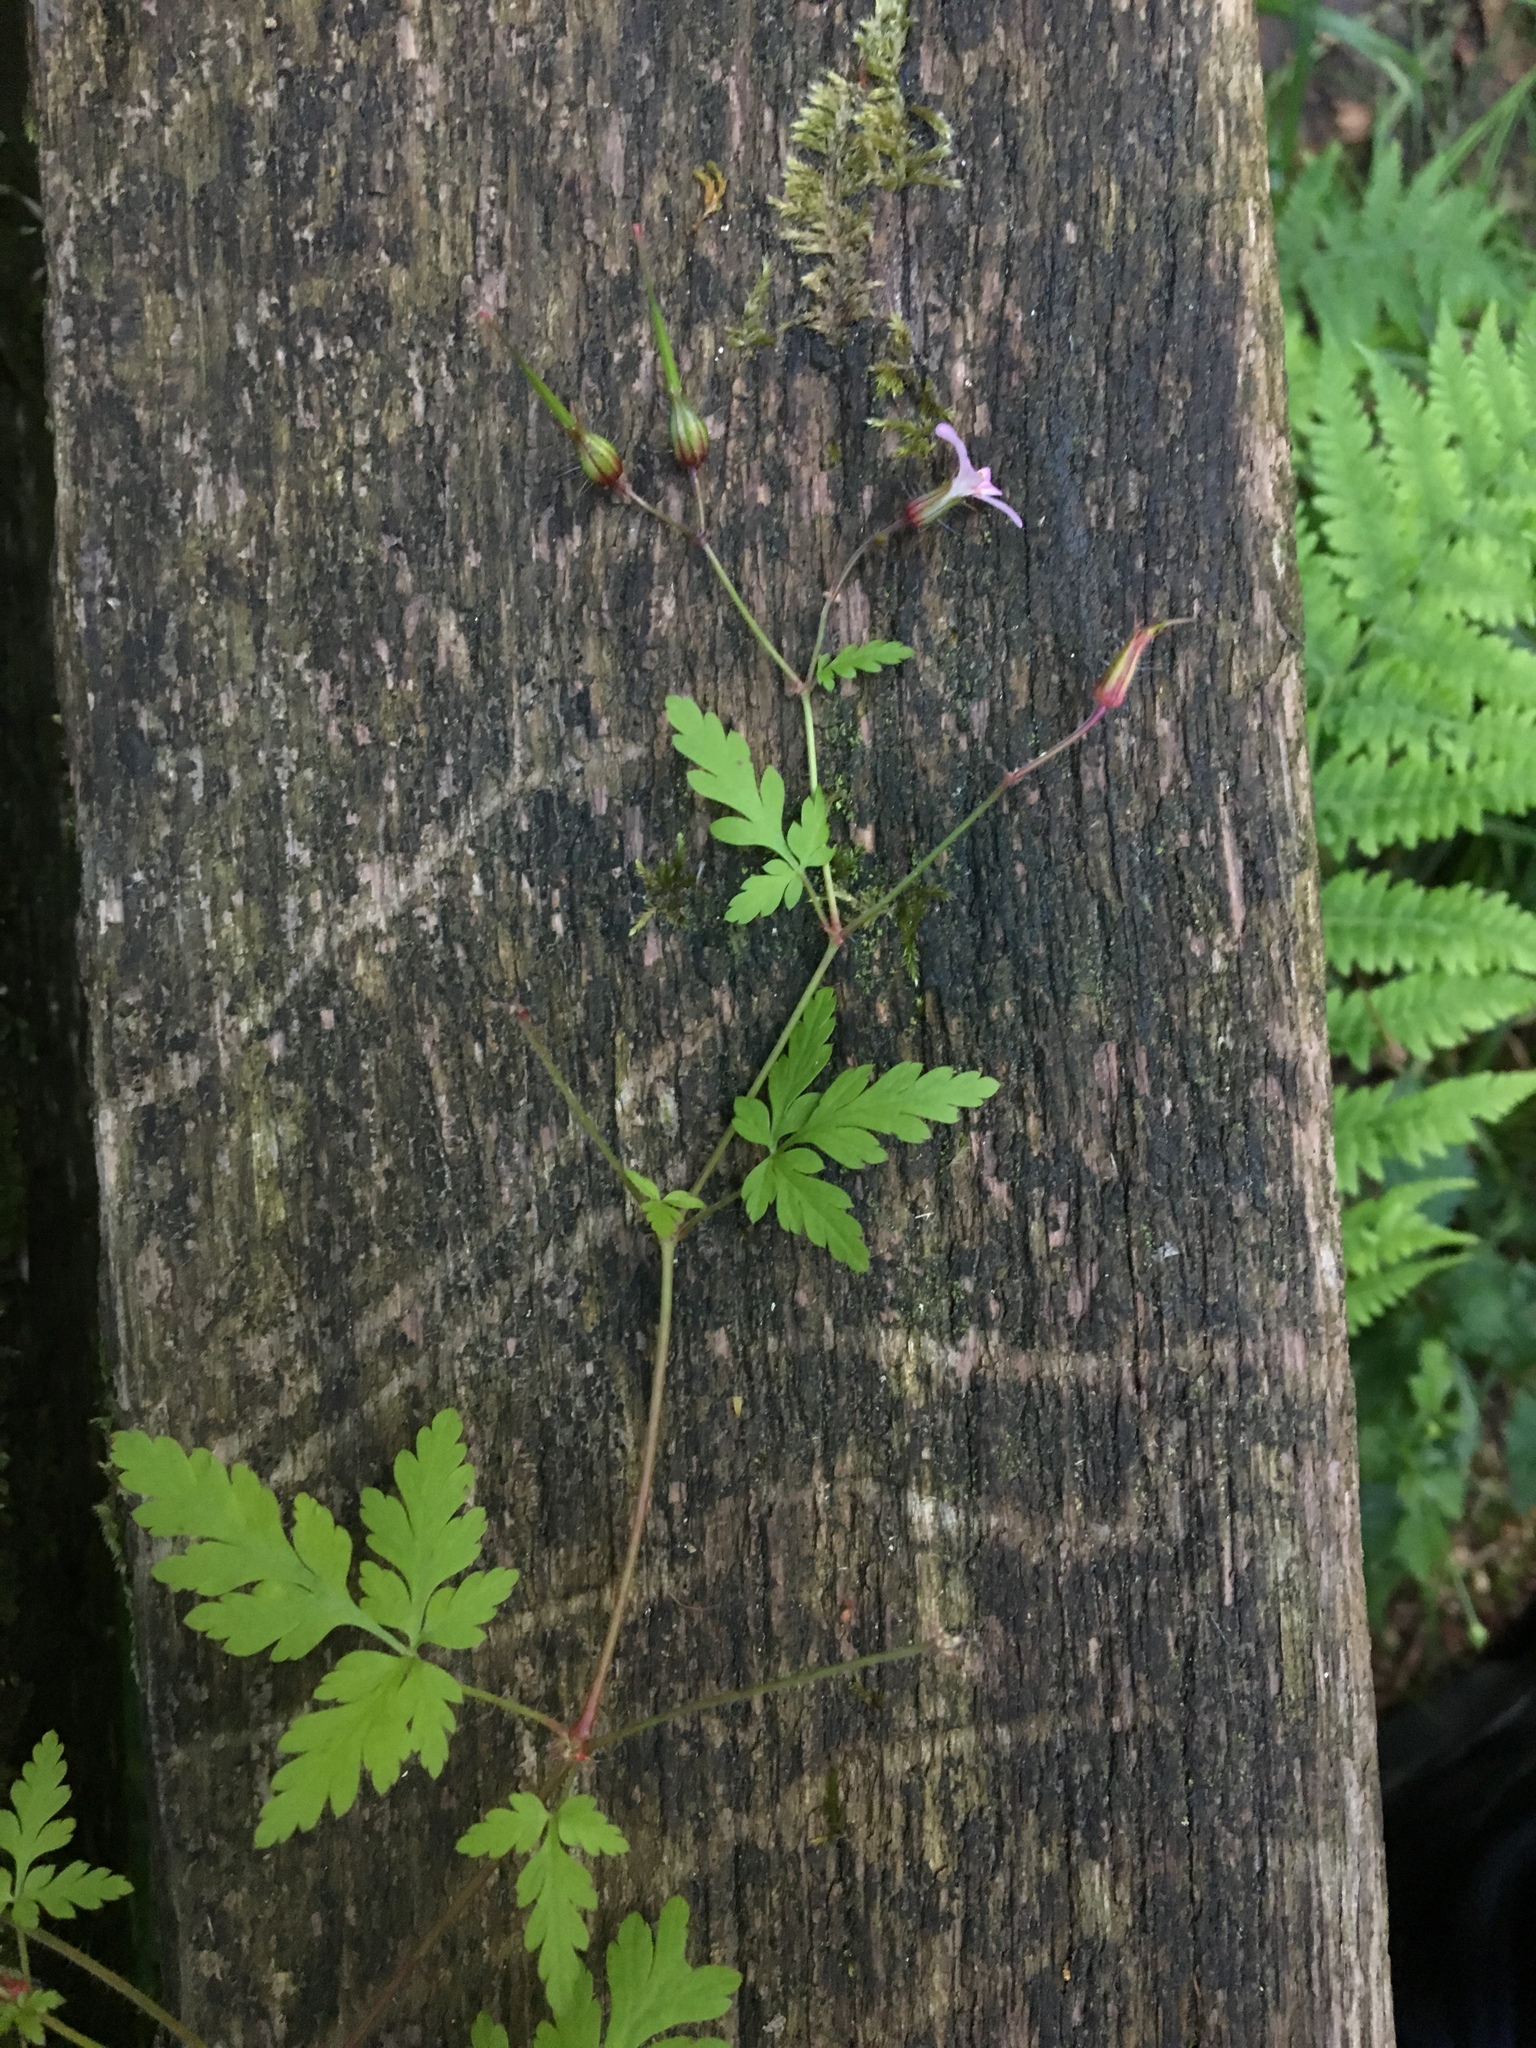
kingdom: Plantae
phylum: Tracheophyta
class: Magnoliopsida
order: Geraniales
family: Geraniaceae
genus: Geranium
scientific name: Geranium robertianum
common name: Herb-robert
